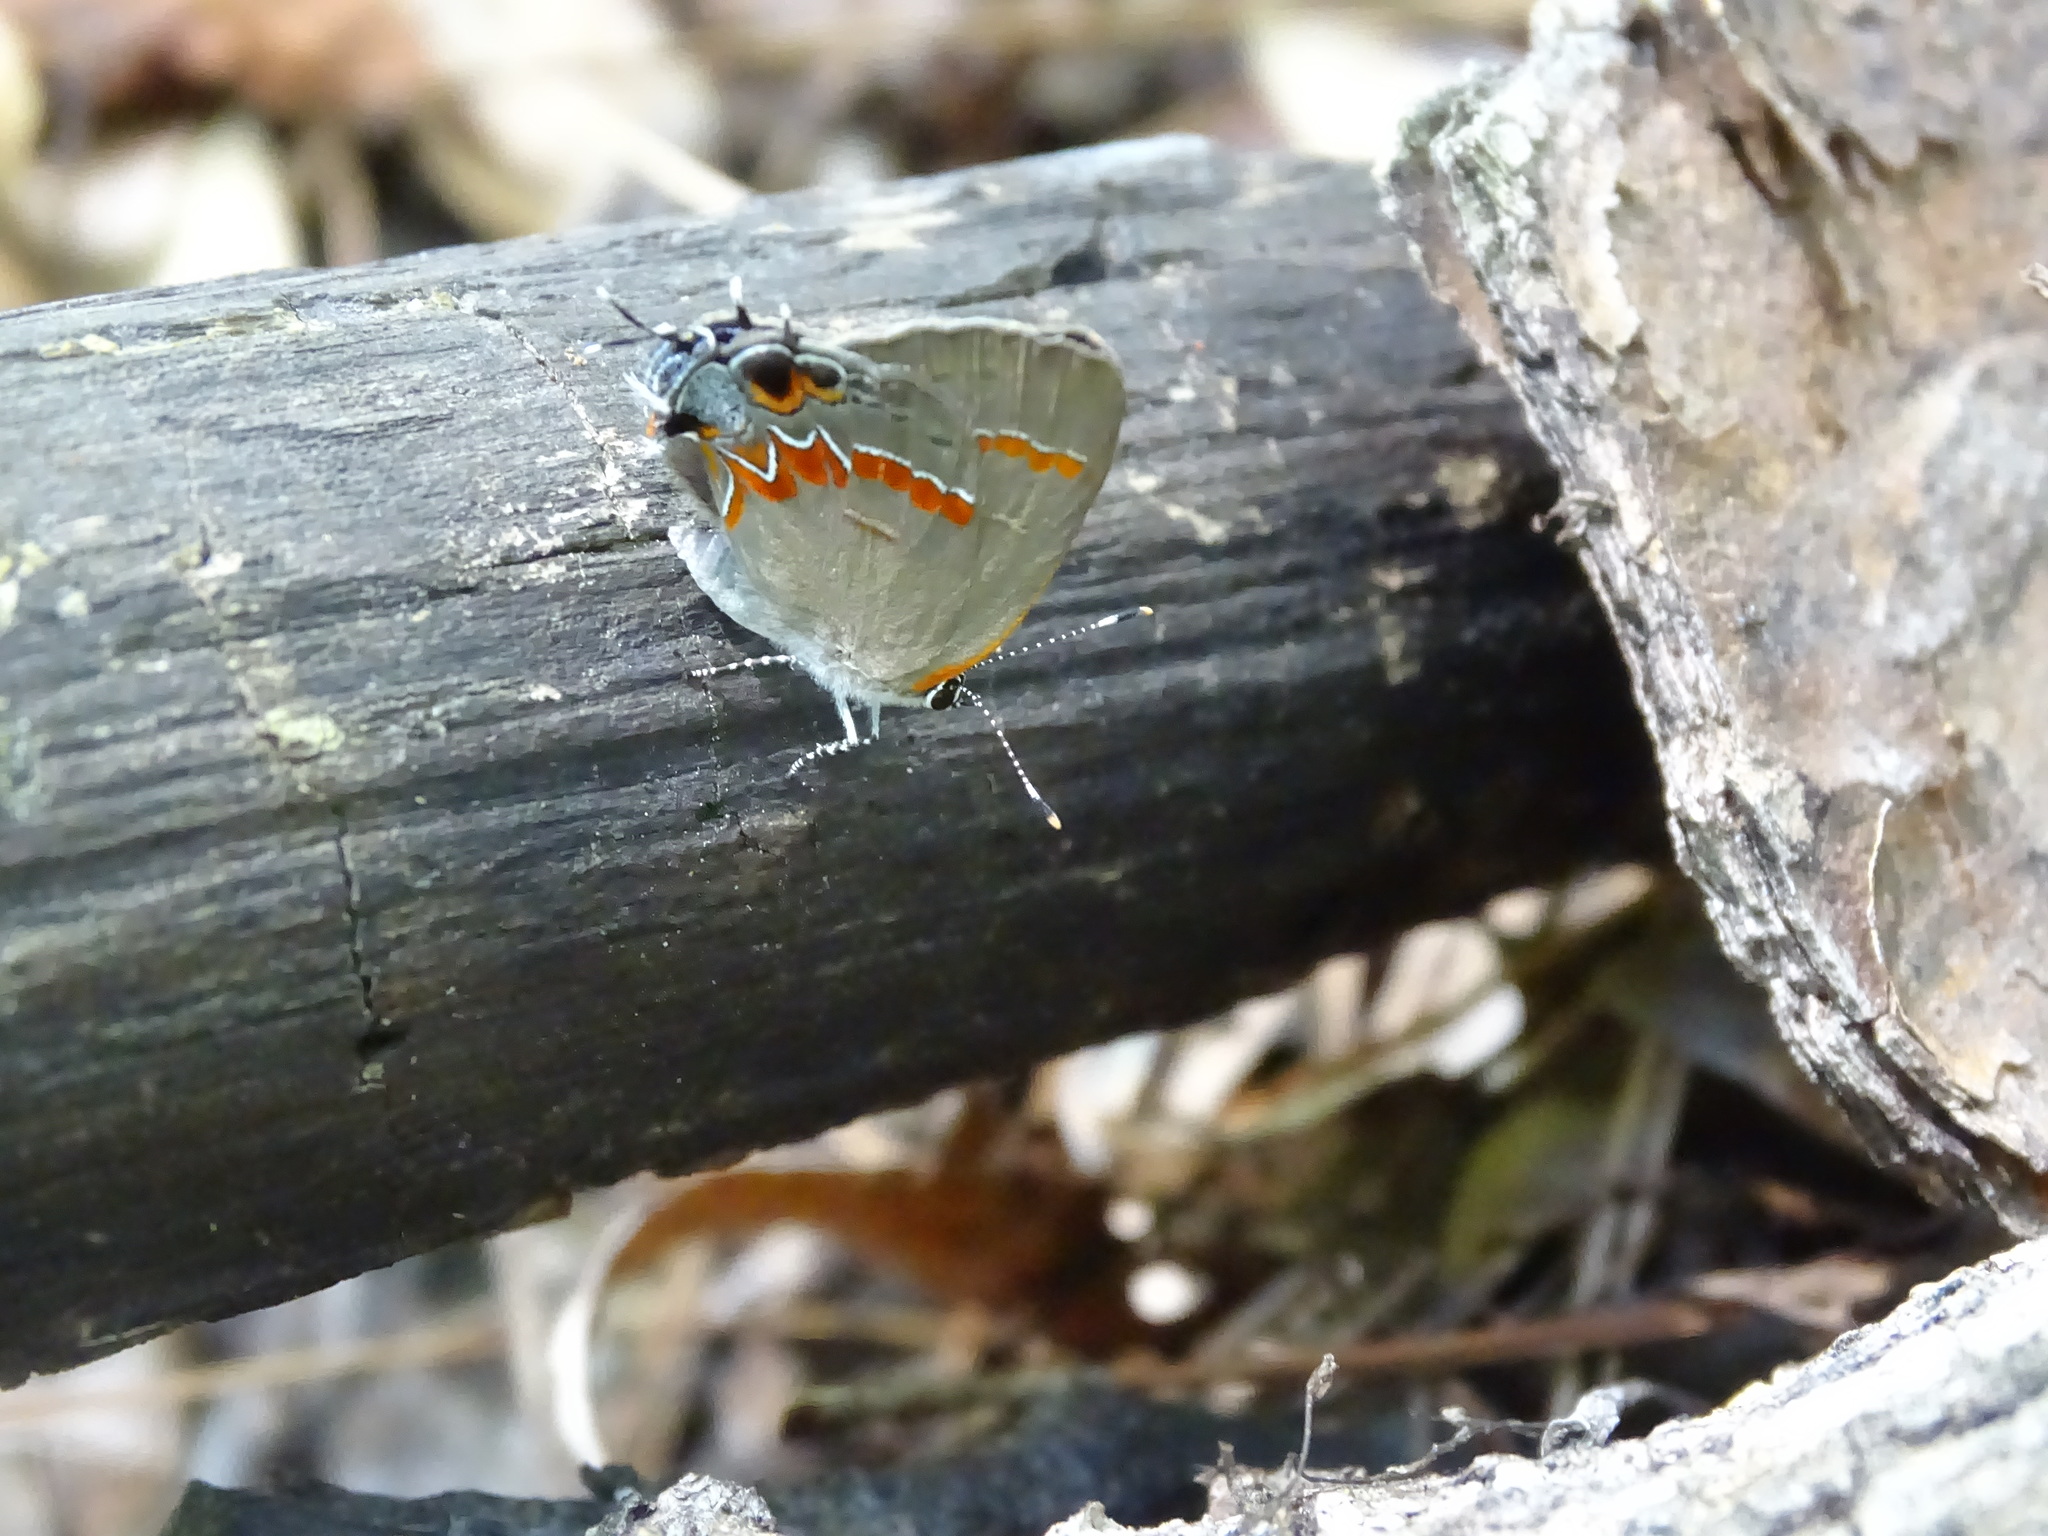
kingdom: Animalia
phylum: Arthropoda
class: Insecta
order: Lepidoptera
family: Lycaenidae
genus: Calycopis
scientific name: Calycopis cecrops
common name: Red-banded hairstreak
